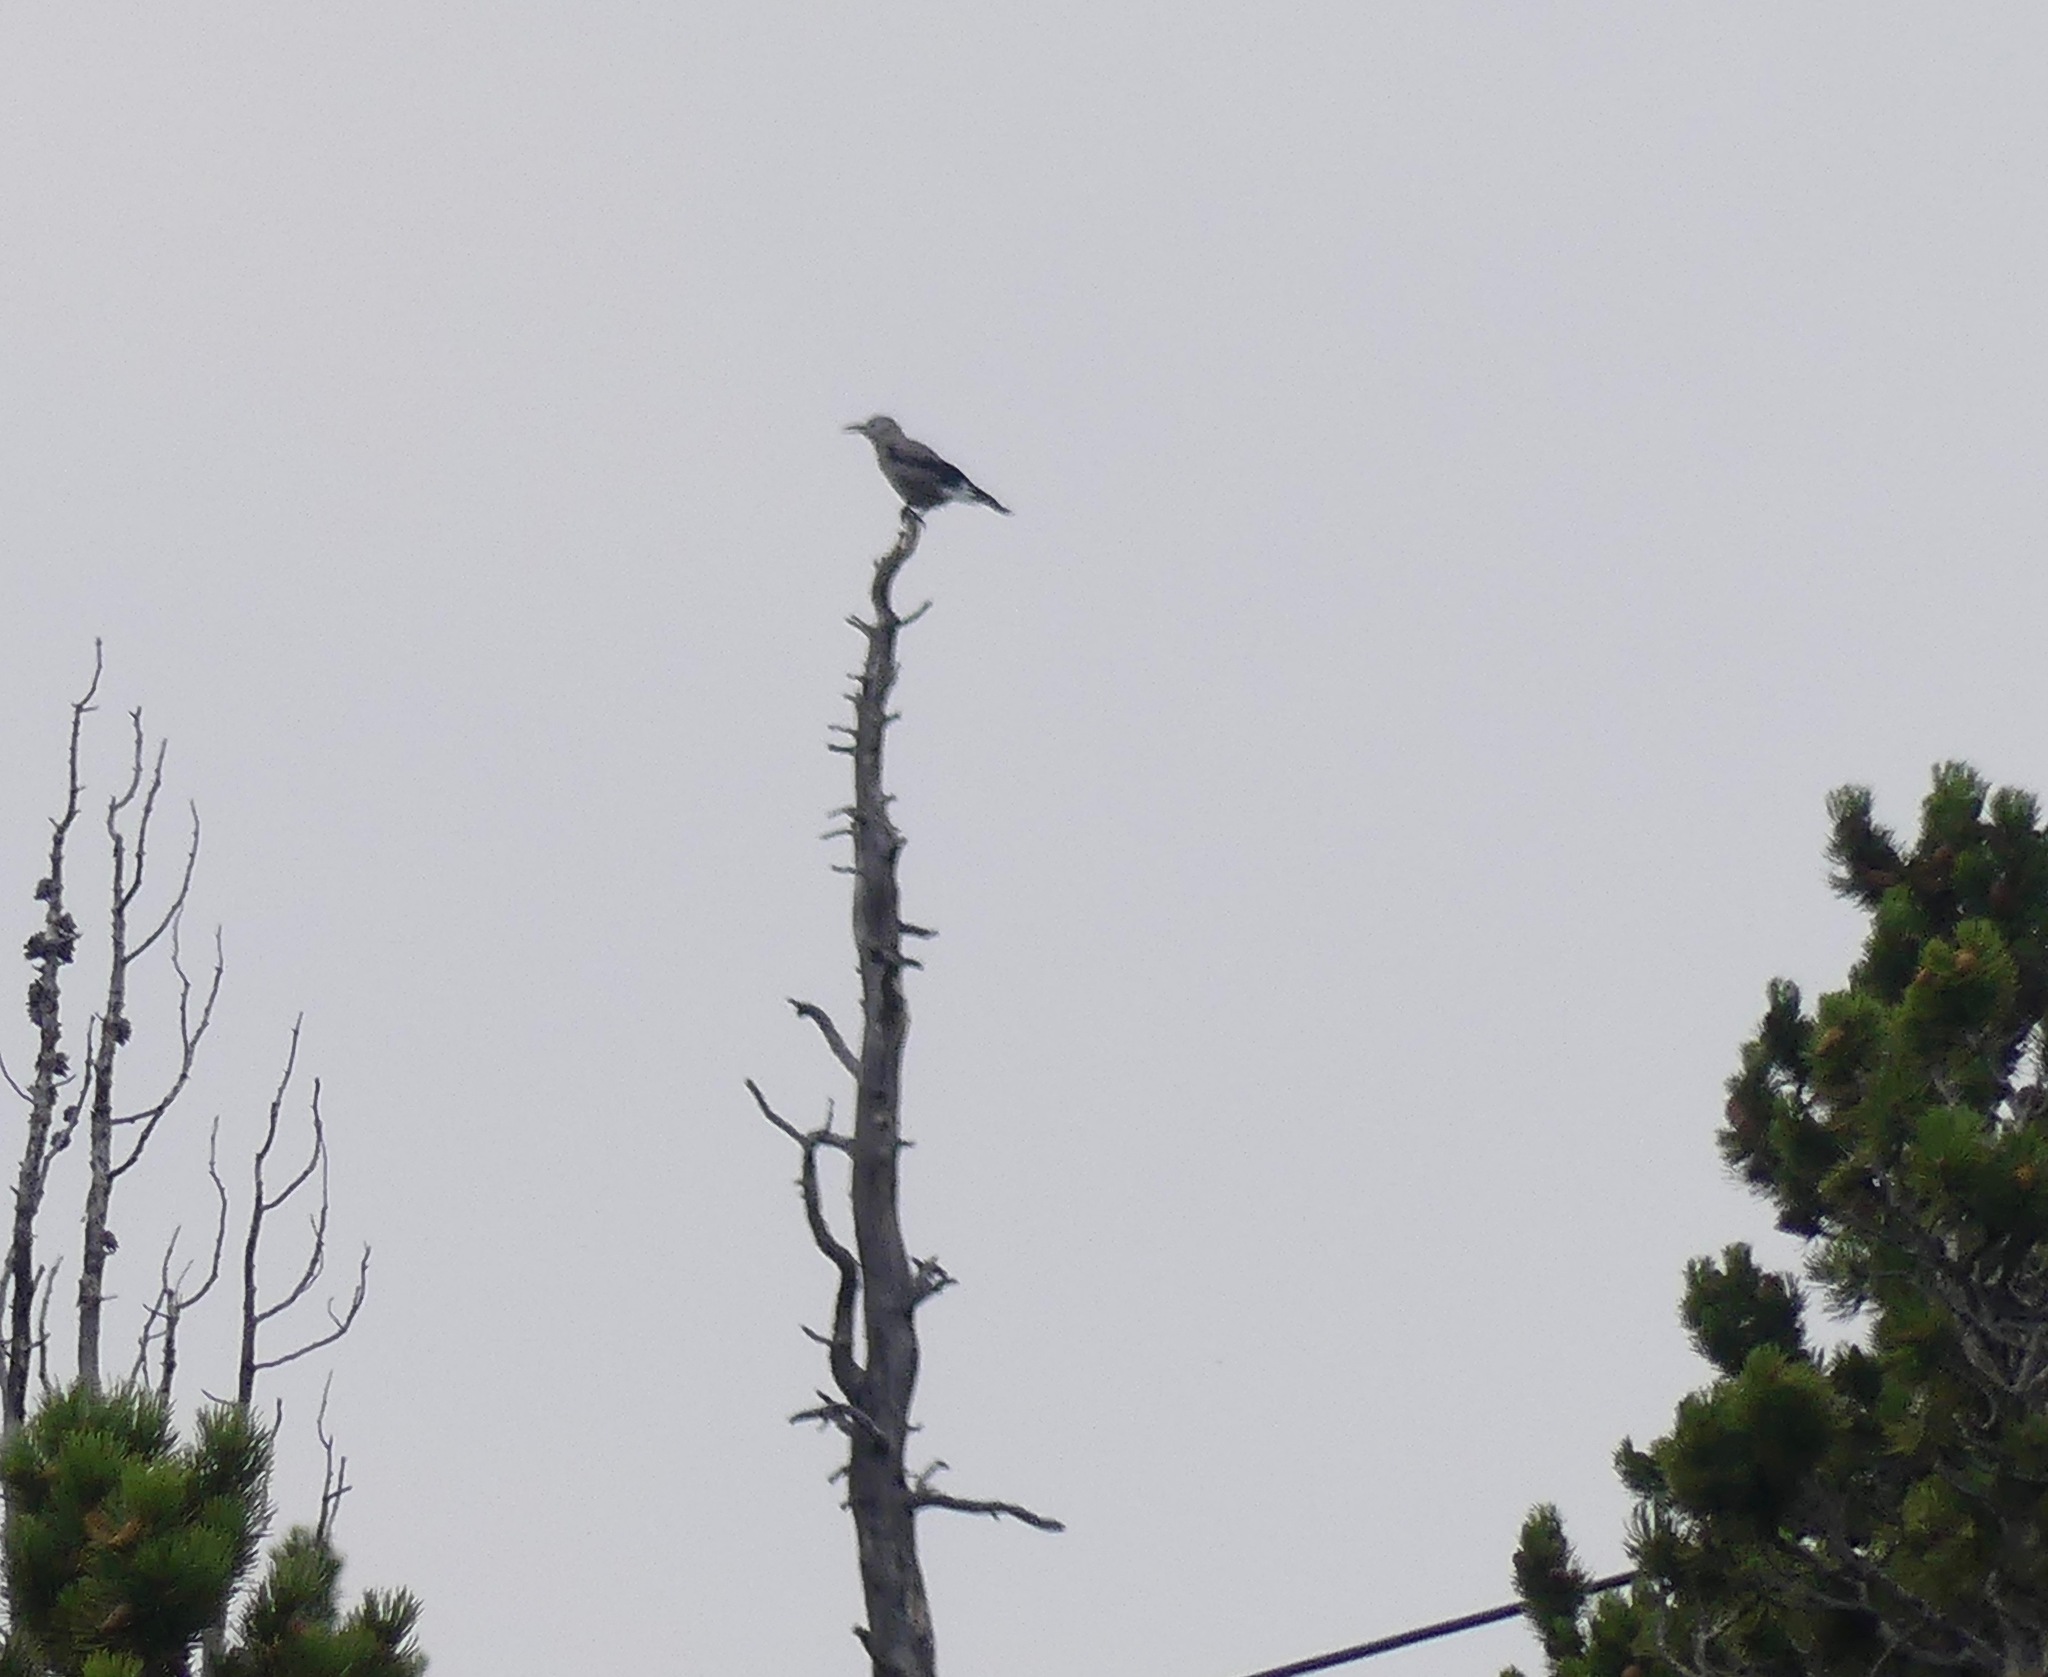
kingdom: Animalia
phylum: Chordata
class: Aves
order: Passeriformes
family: Corvidae
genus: Nucifraga
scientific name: Nucifraga columbiana
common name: Clark's nutcracker
